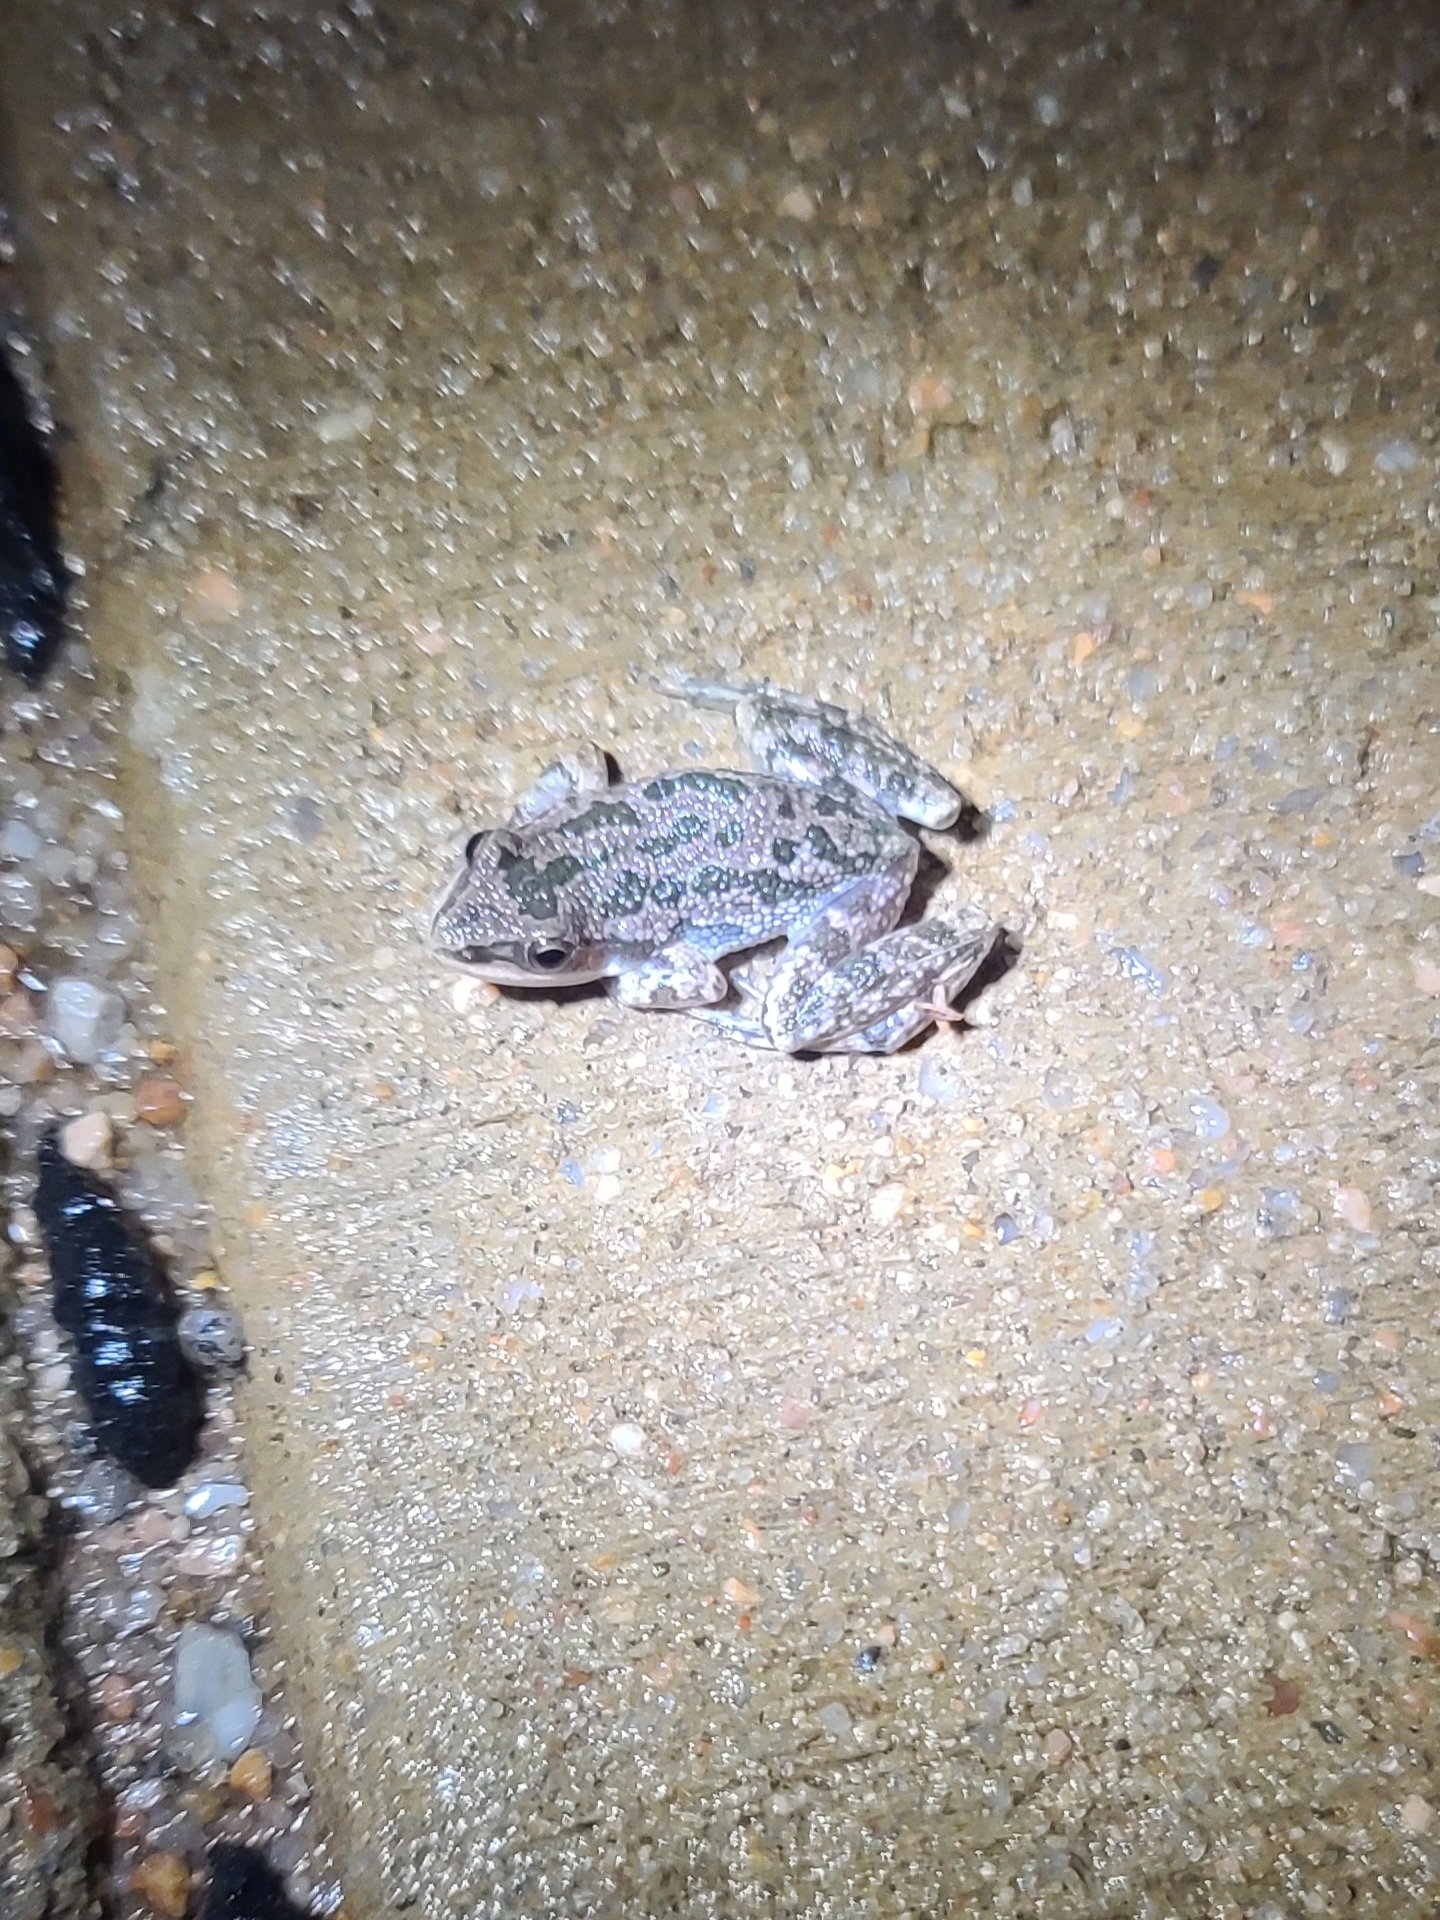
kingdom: Animalia
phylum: Chordata
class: Amphibia
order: Anura
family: Hylidae
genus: Pseudacris
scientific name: Pseudacris clarkii
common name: Spotted chorus frog
